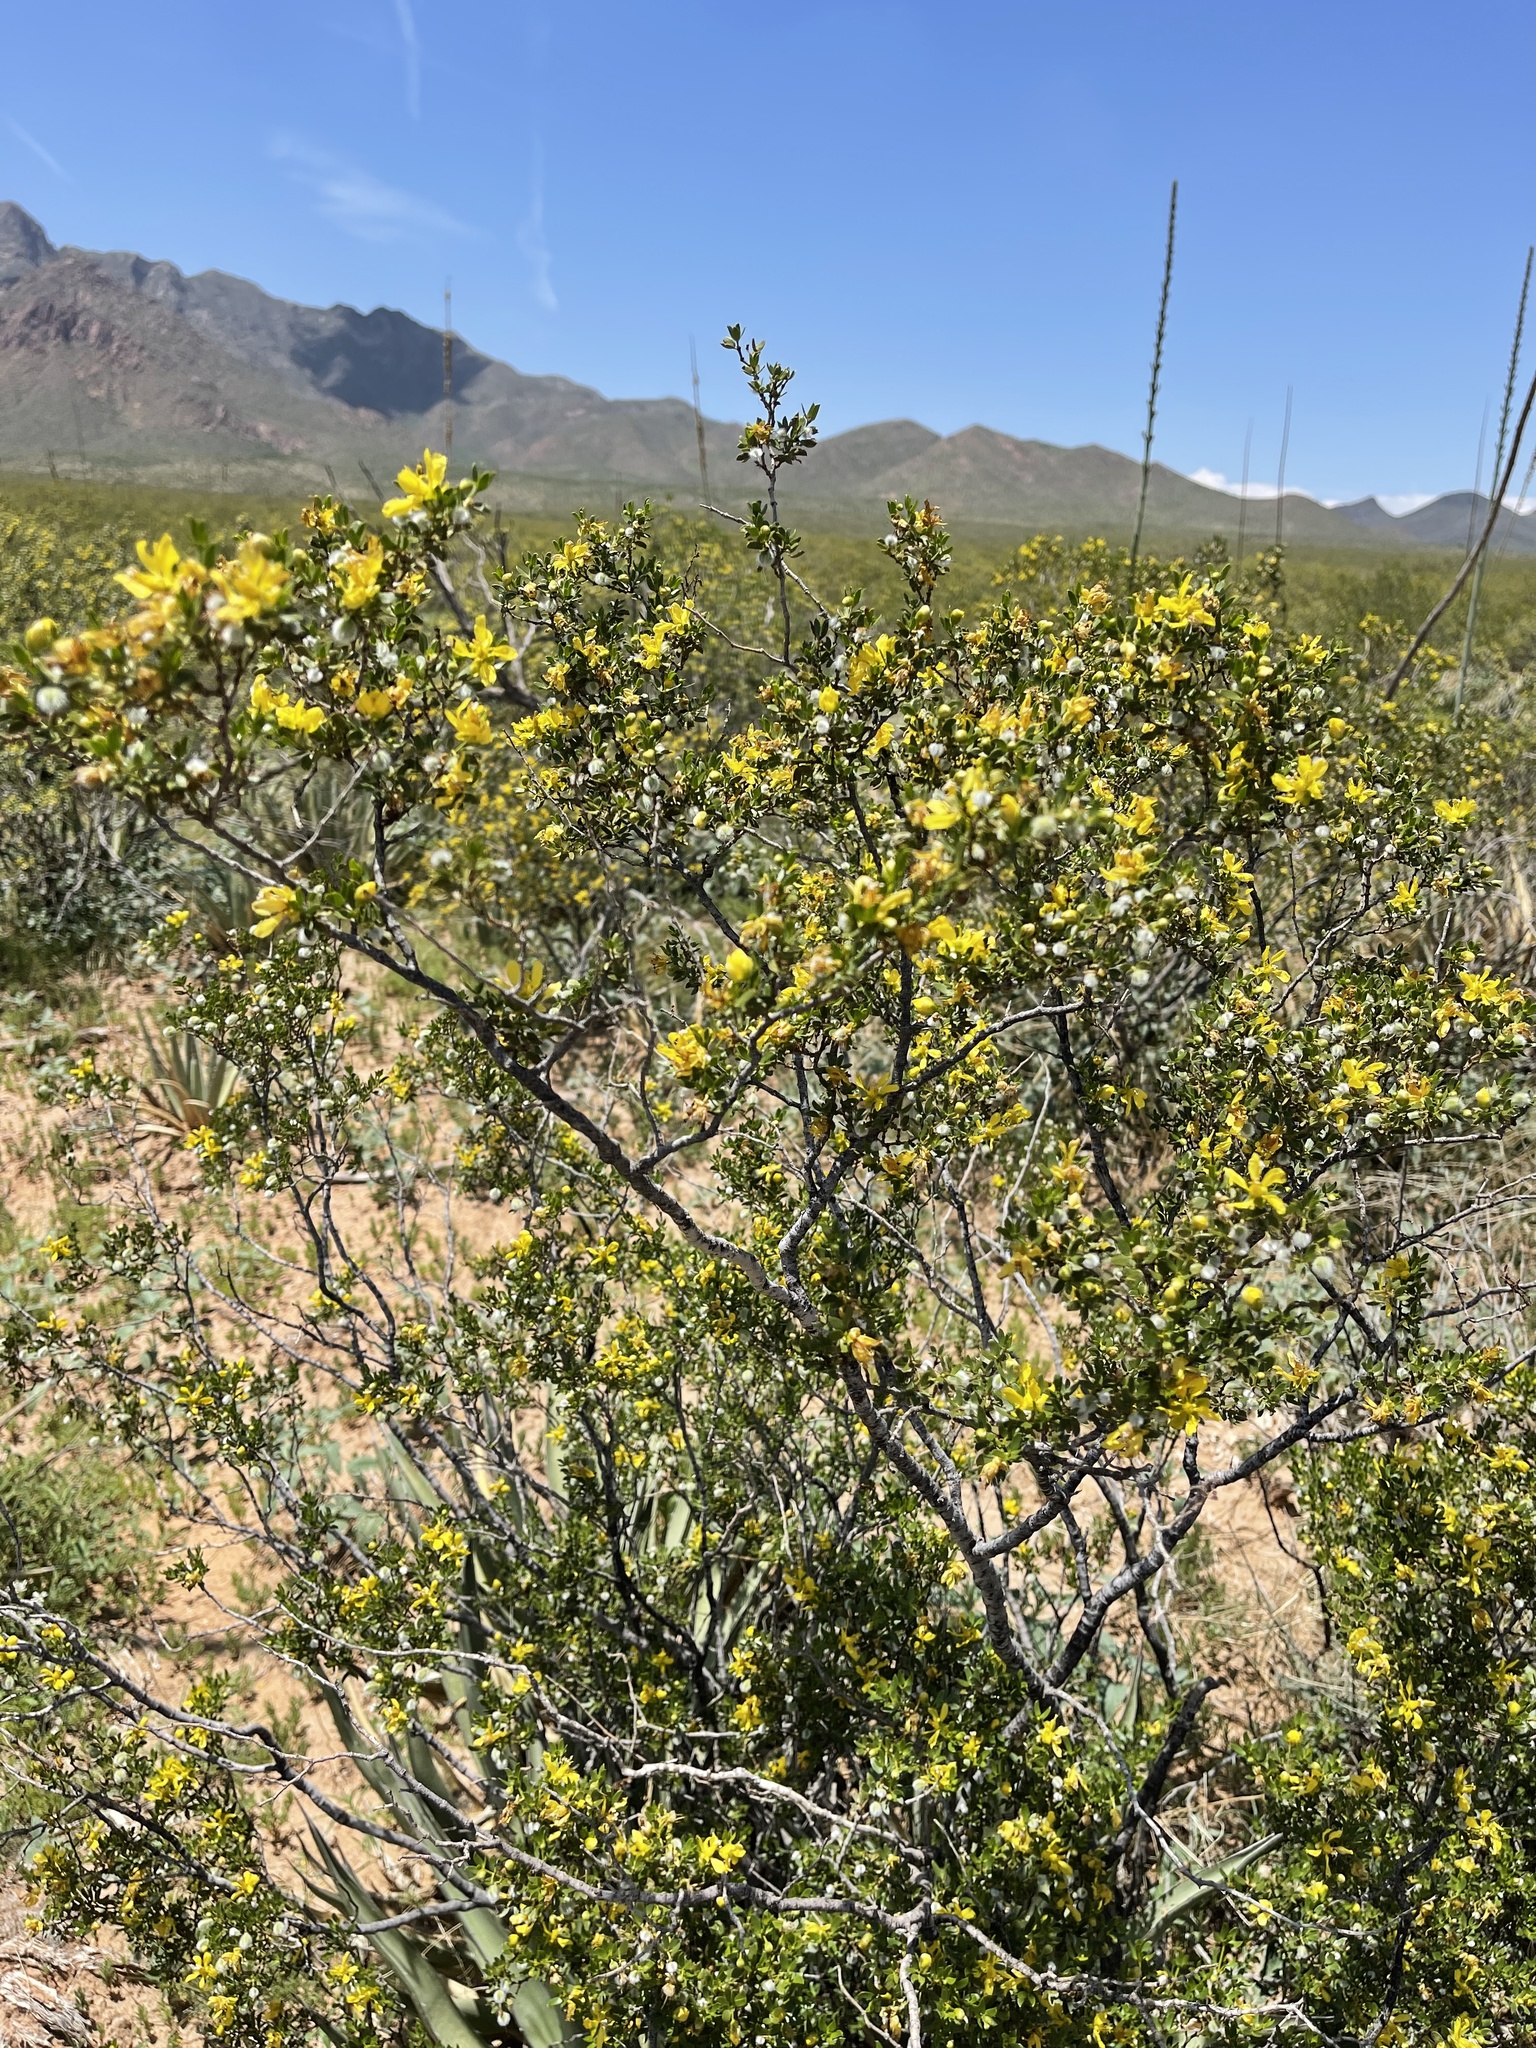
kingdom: Plantae
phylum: Tracheophyta
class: Magnoliopsida
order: Zygophyllales
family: Zygophyllaceae
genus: Larrea
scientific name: Larrea tridentata
